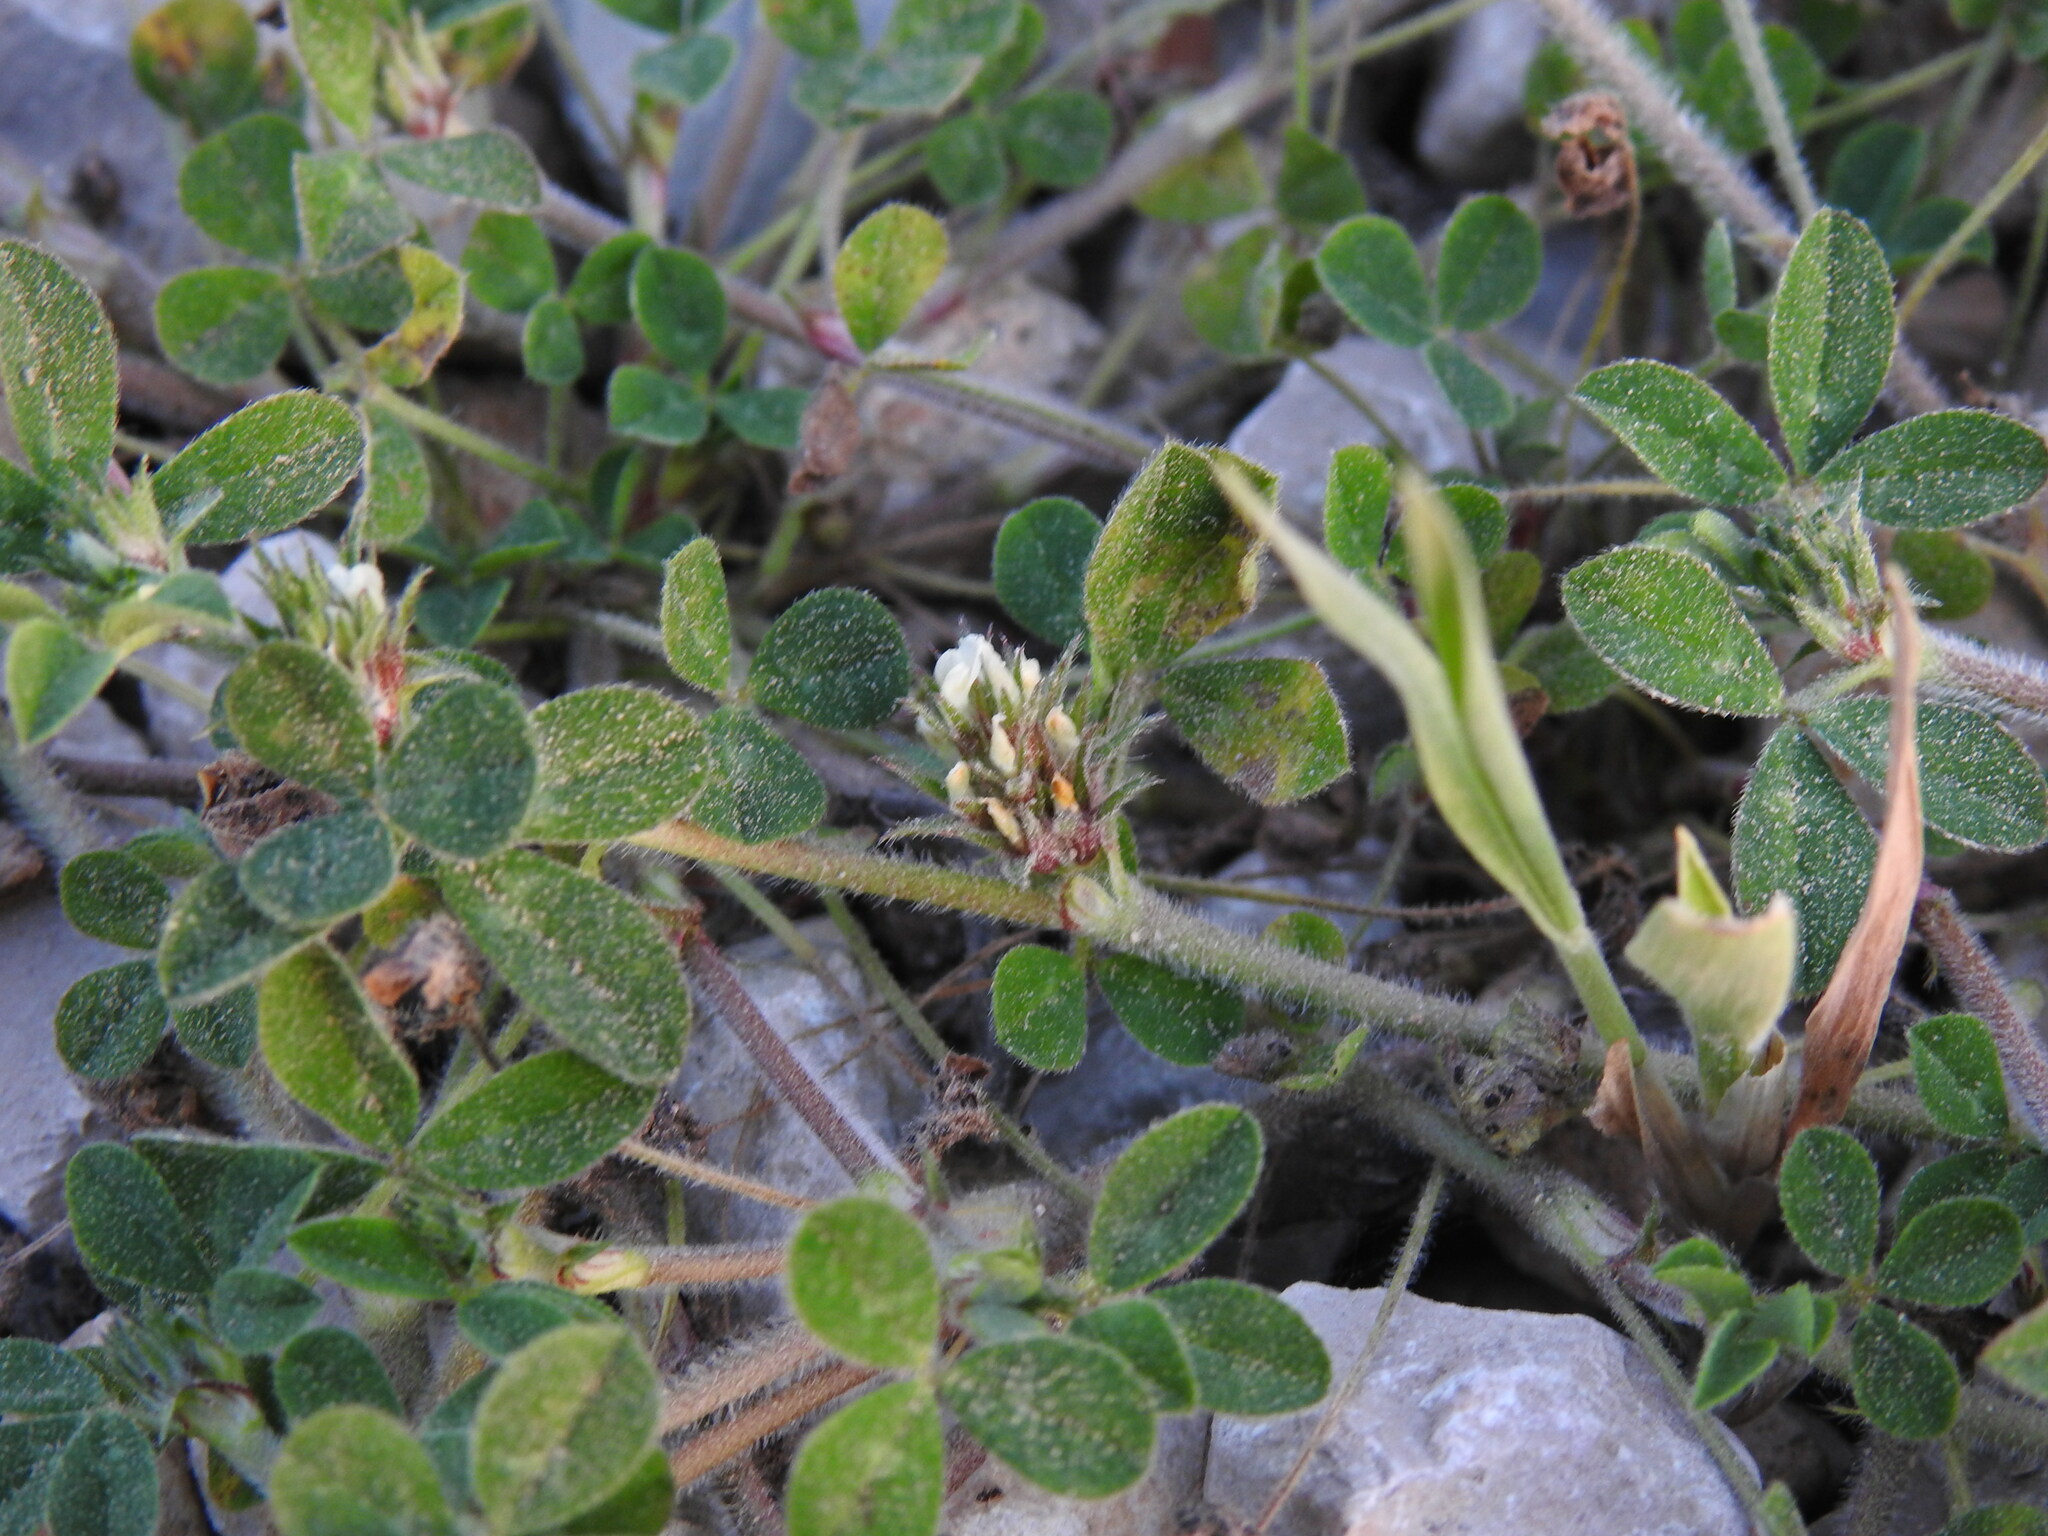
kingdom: Plantae
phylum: Tracheophyta
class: Magnoliopsida
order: Fabales
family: Fabaceae
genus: Trifolium
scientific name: Trifolium scabrum
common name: Rough clover
